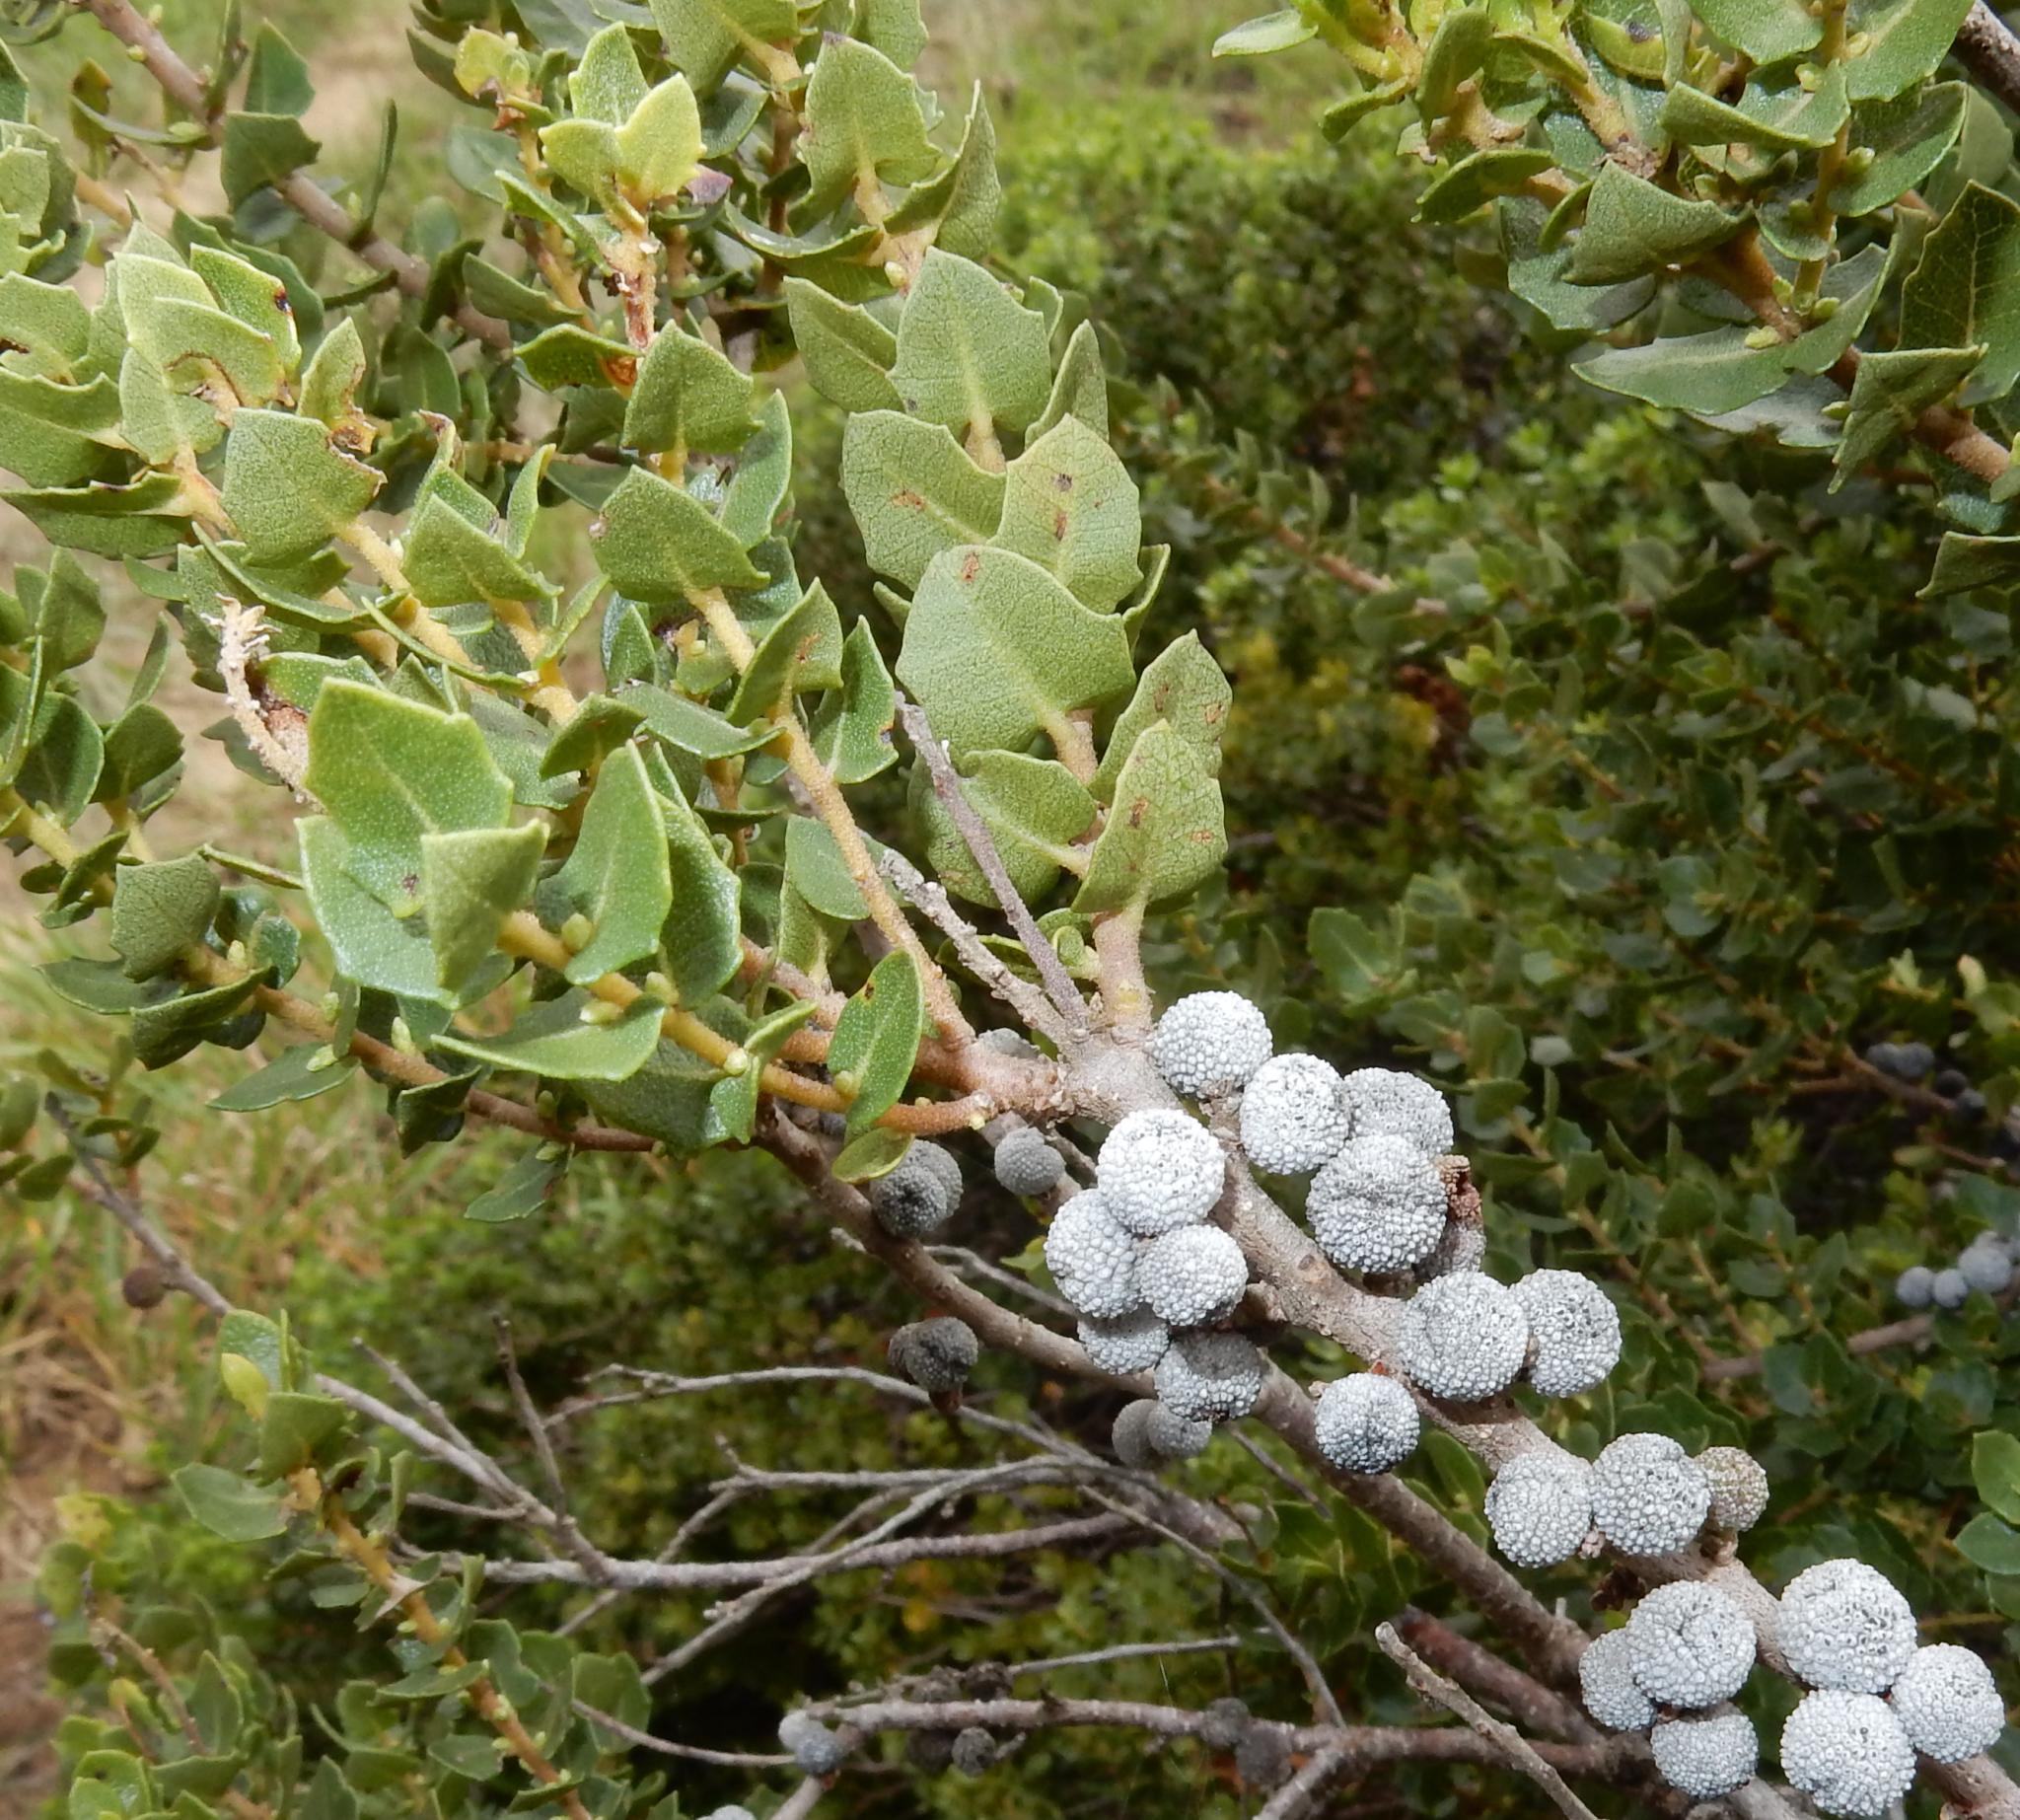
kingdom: Plantae
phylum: Tracheophyta
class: Magnoliopsida
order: Fagales
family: Myricaceae
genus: Morella
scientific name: Morella cordifolia
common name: Waxberry
